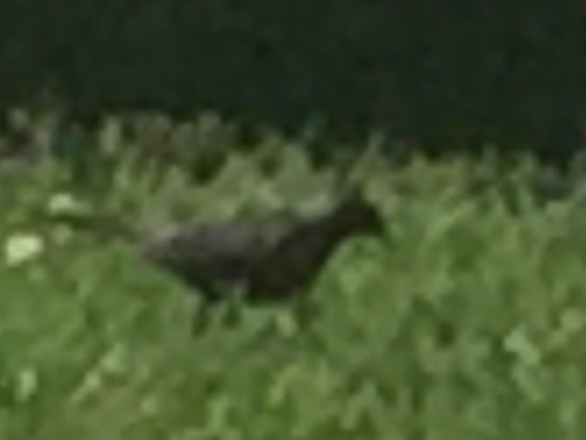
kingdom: Animalia
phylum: Chordata
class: Aves
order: Passeriformes
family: Icteridae
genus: Quiscalus
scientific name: Quiscalus quiscula
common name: Common grackle
